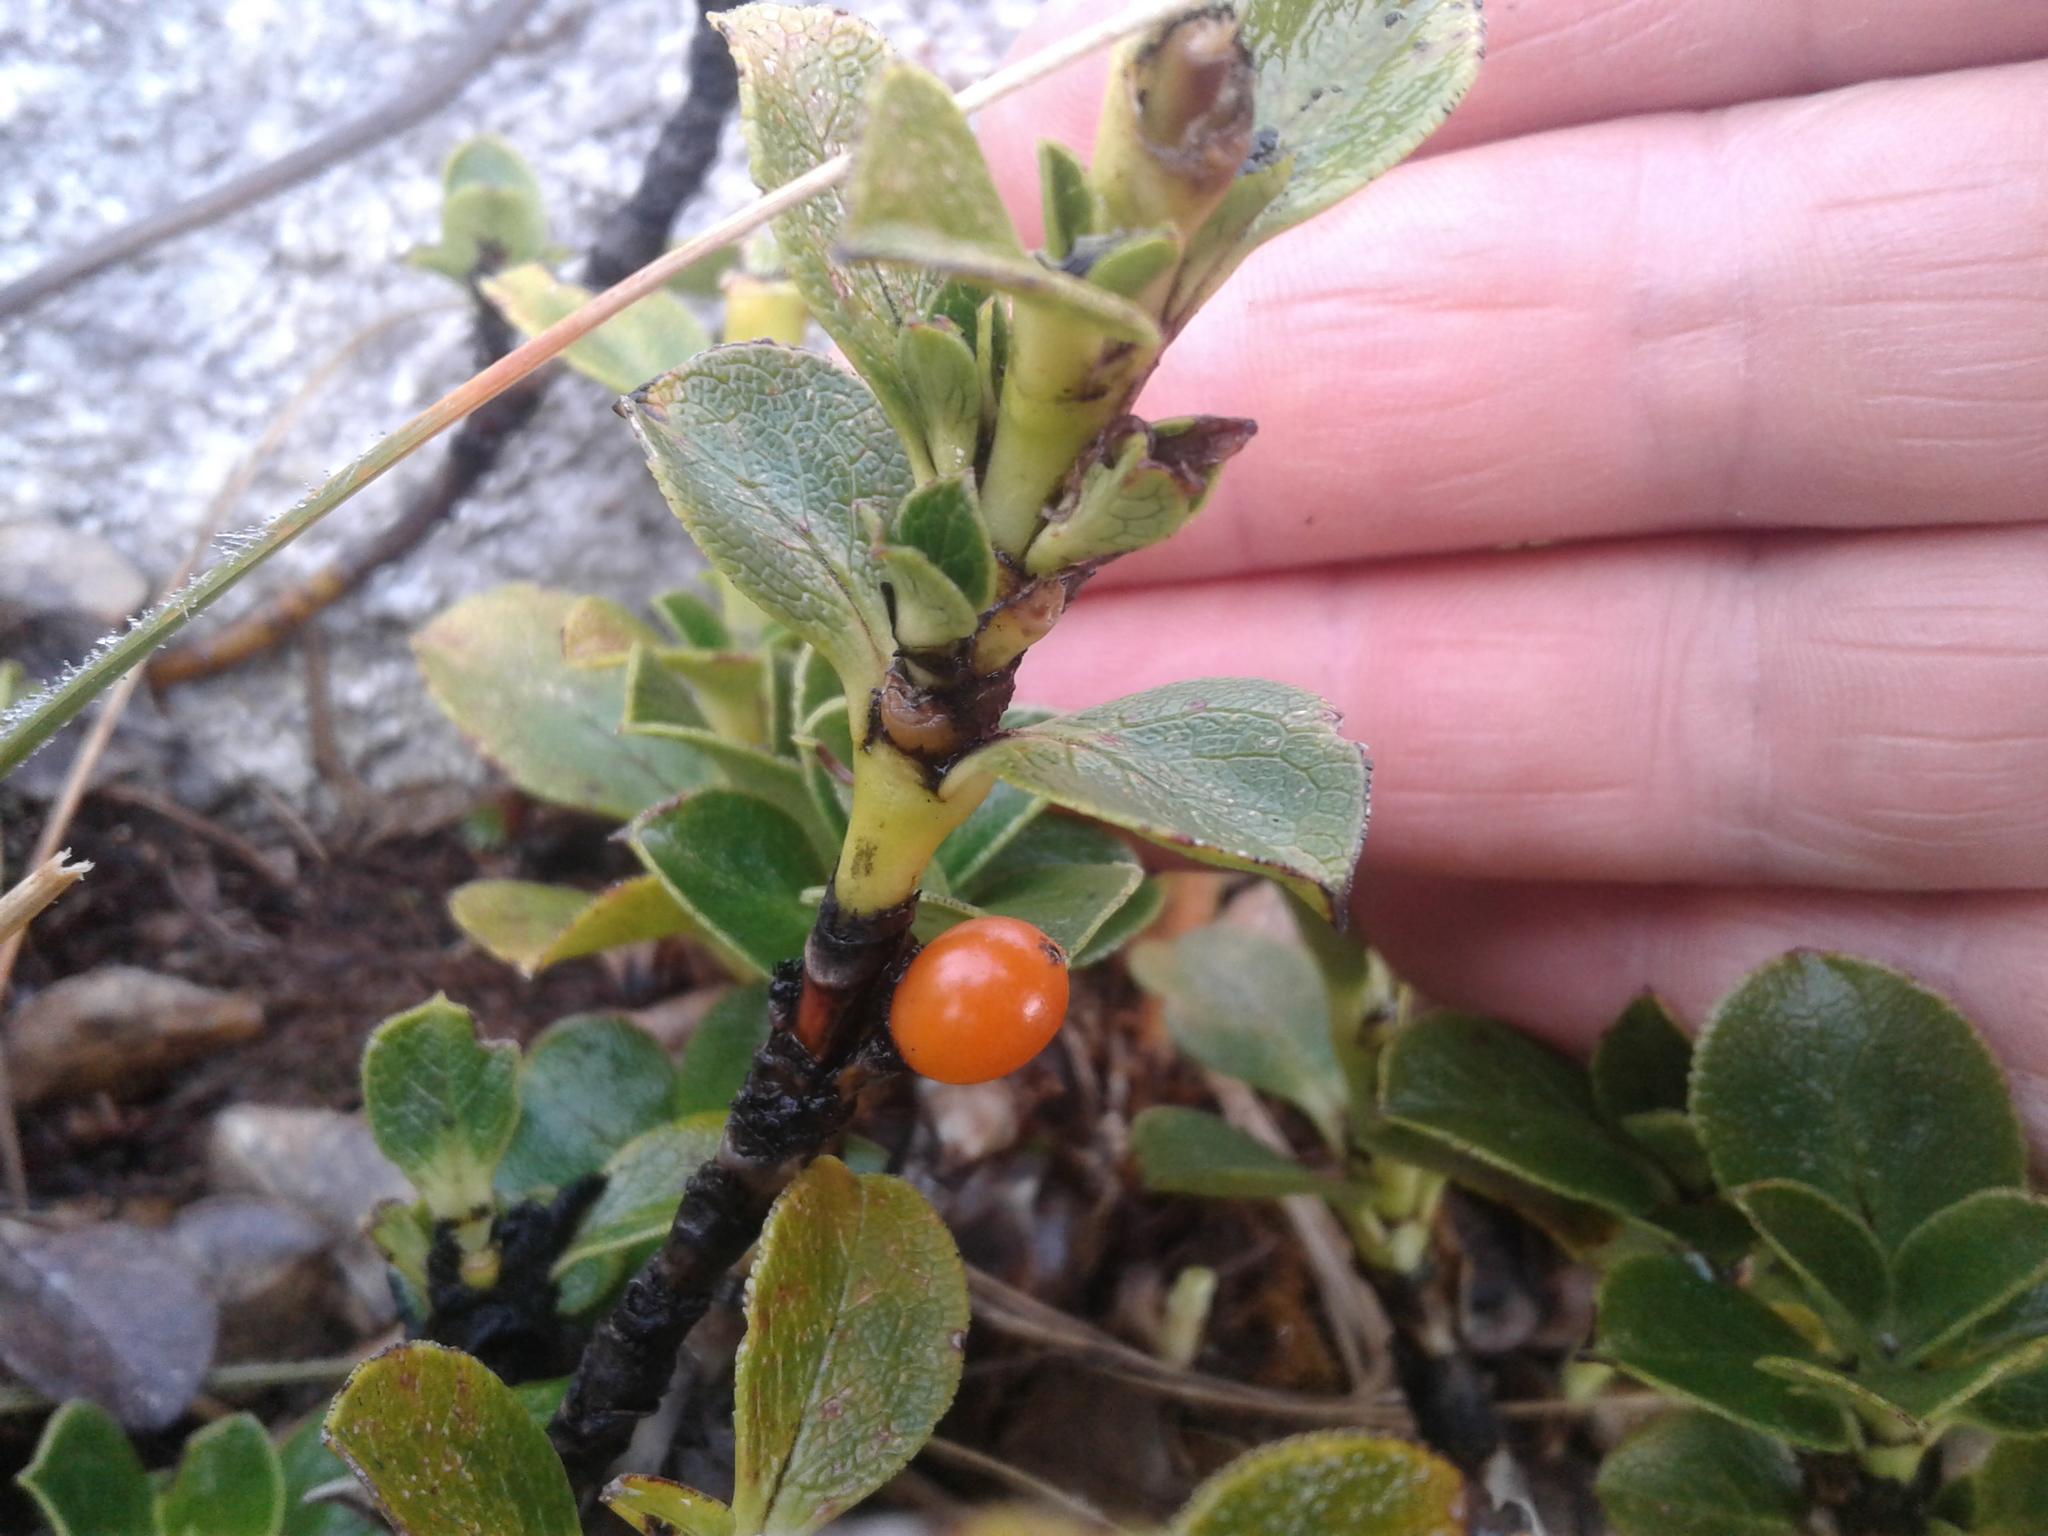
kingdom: Plantae
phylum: Tracheophyta
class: Magnoliopsida
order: Gentianales
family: Rubiaceae
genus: Coprosma
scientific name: Coprosma serrulata
